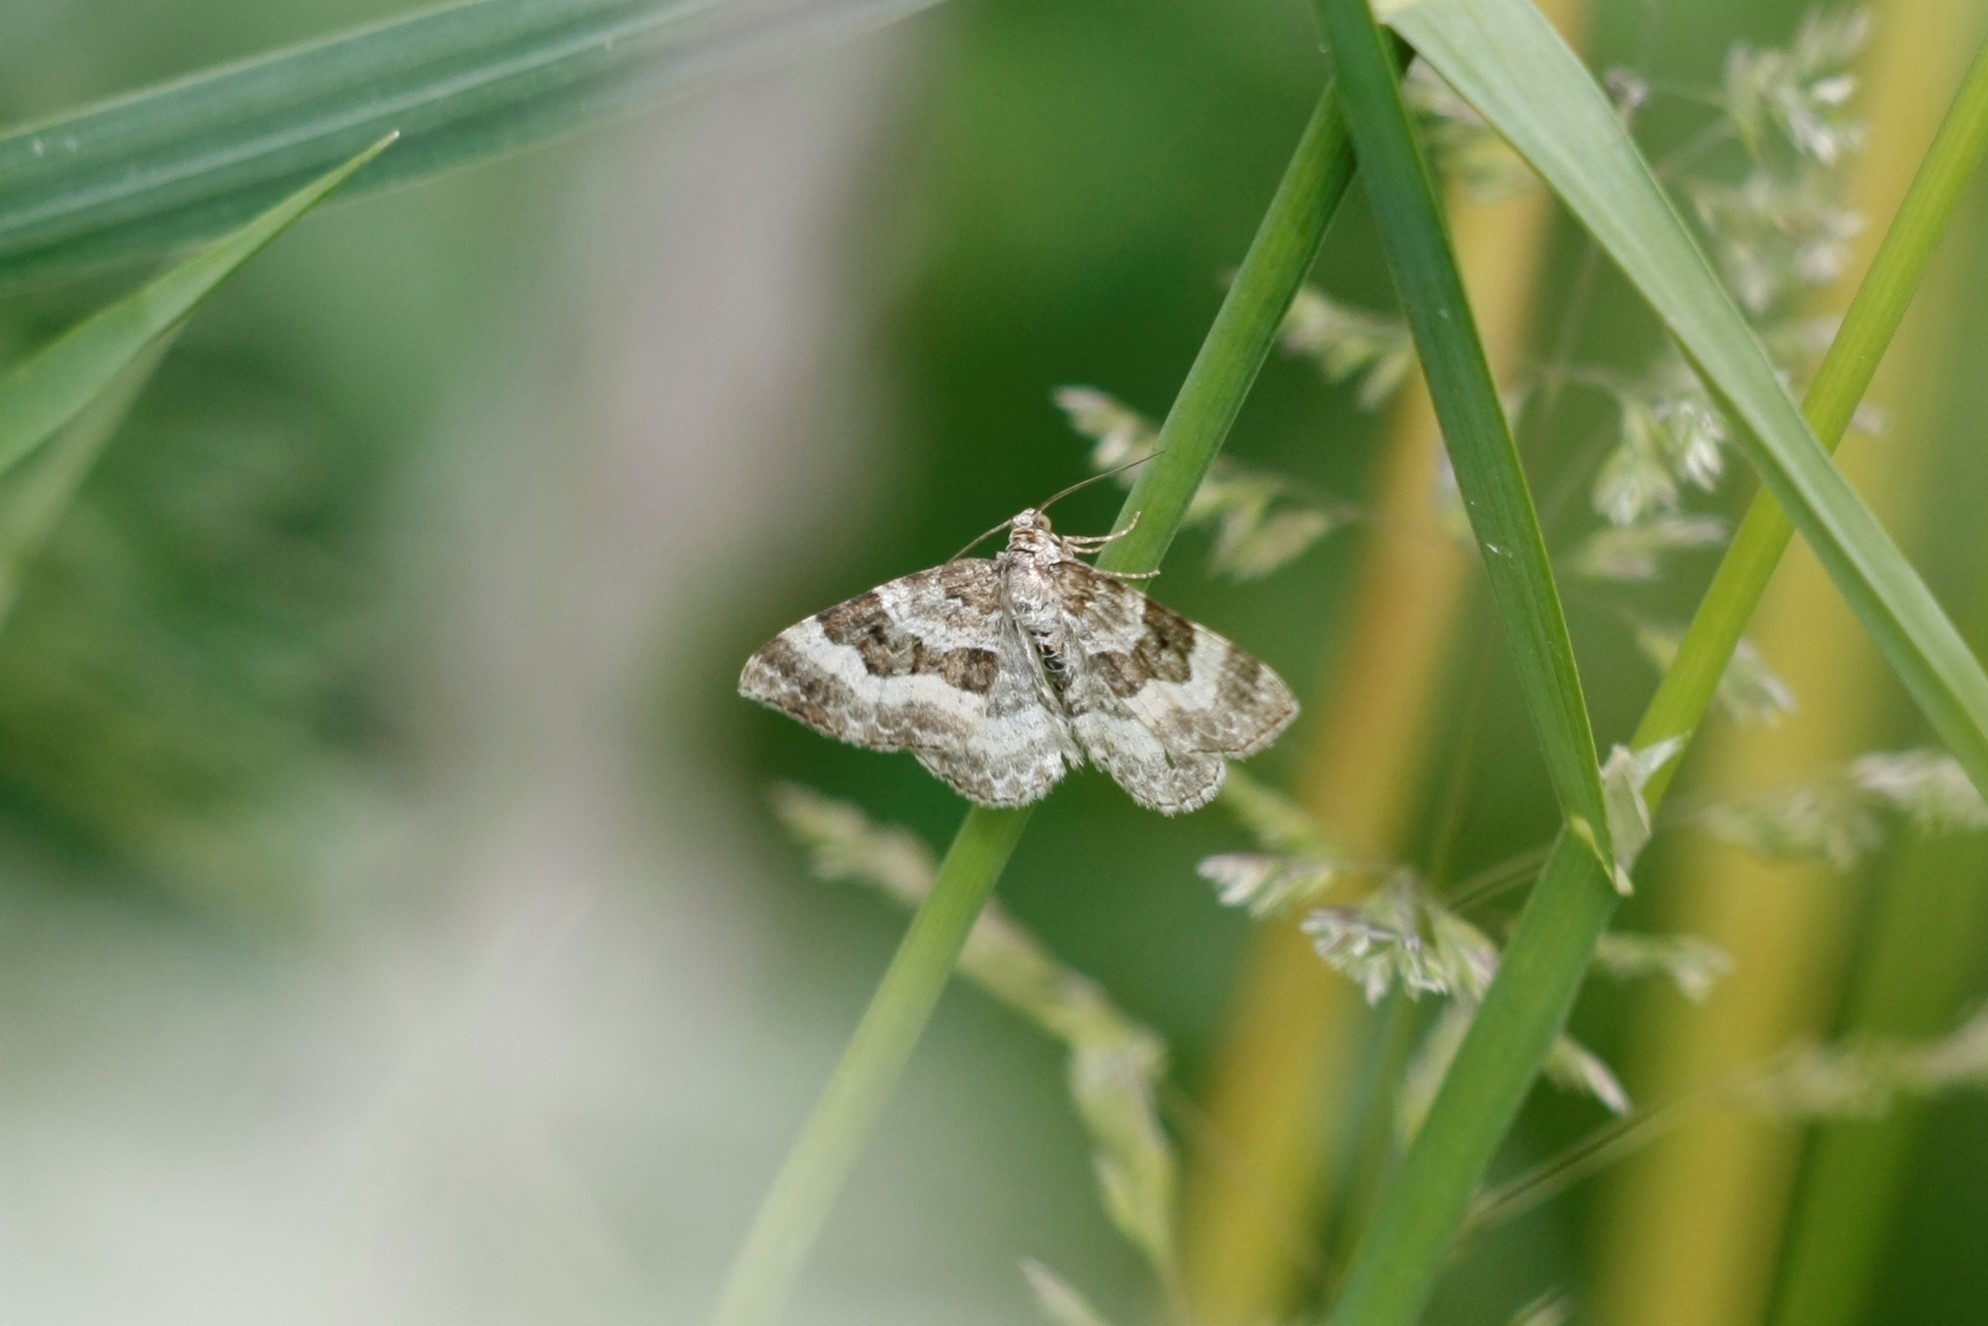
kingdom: Animalia
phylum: Arthropoda
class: Insecta
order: Lepidoptera
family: Geometridae
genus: Epirrhoe
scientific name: Epirrhoe alternata
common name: Common carpet
